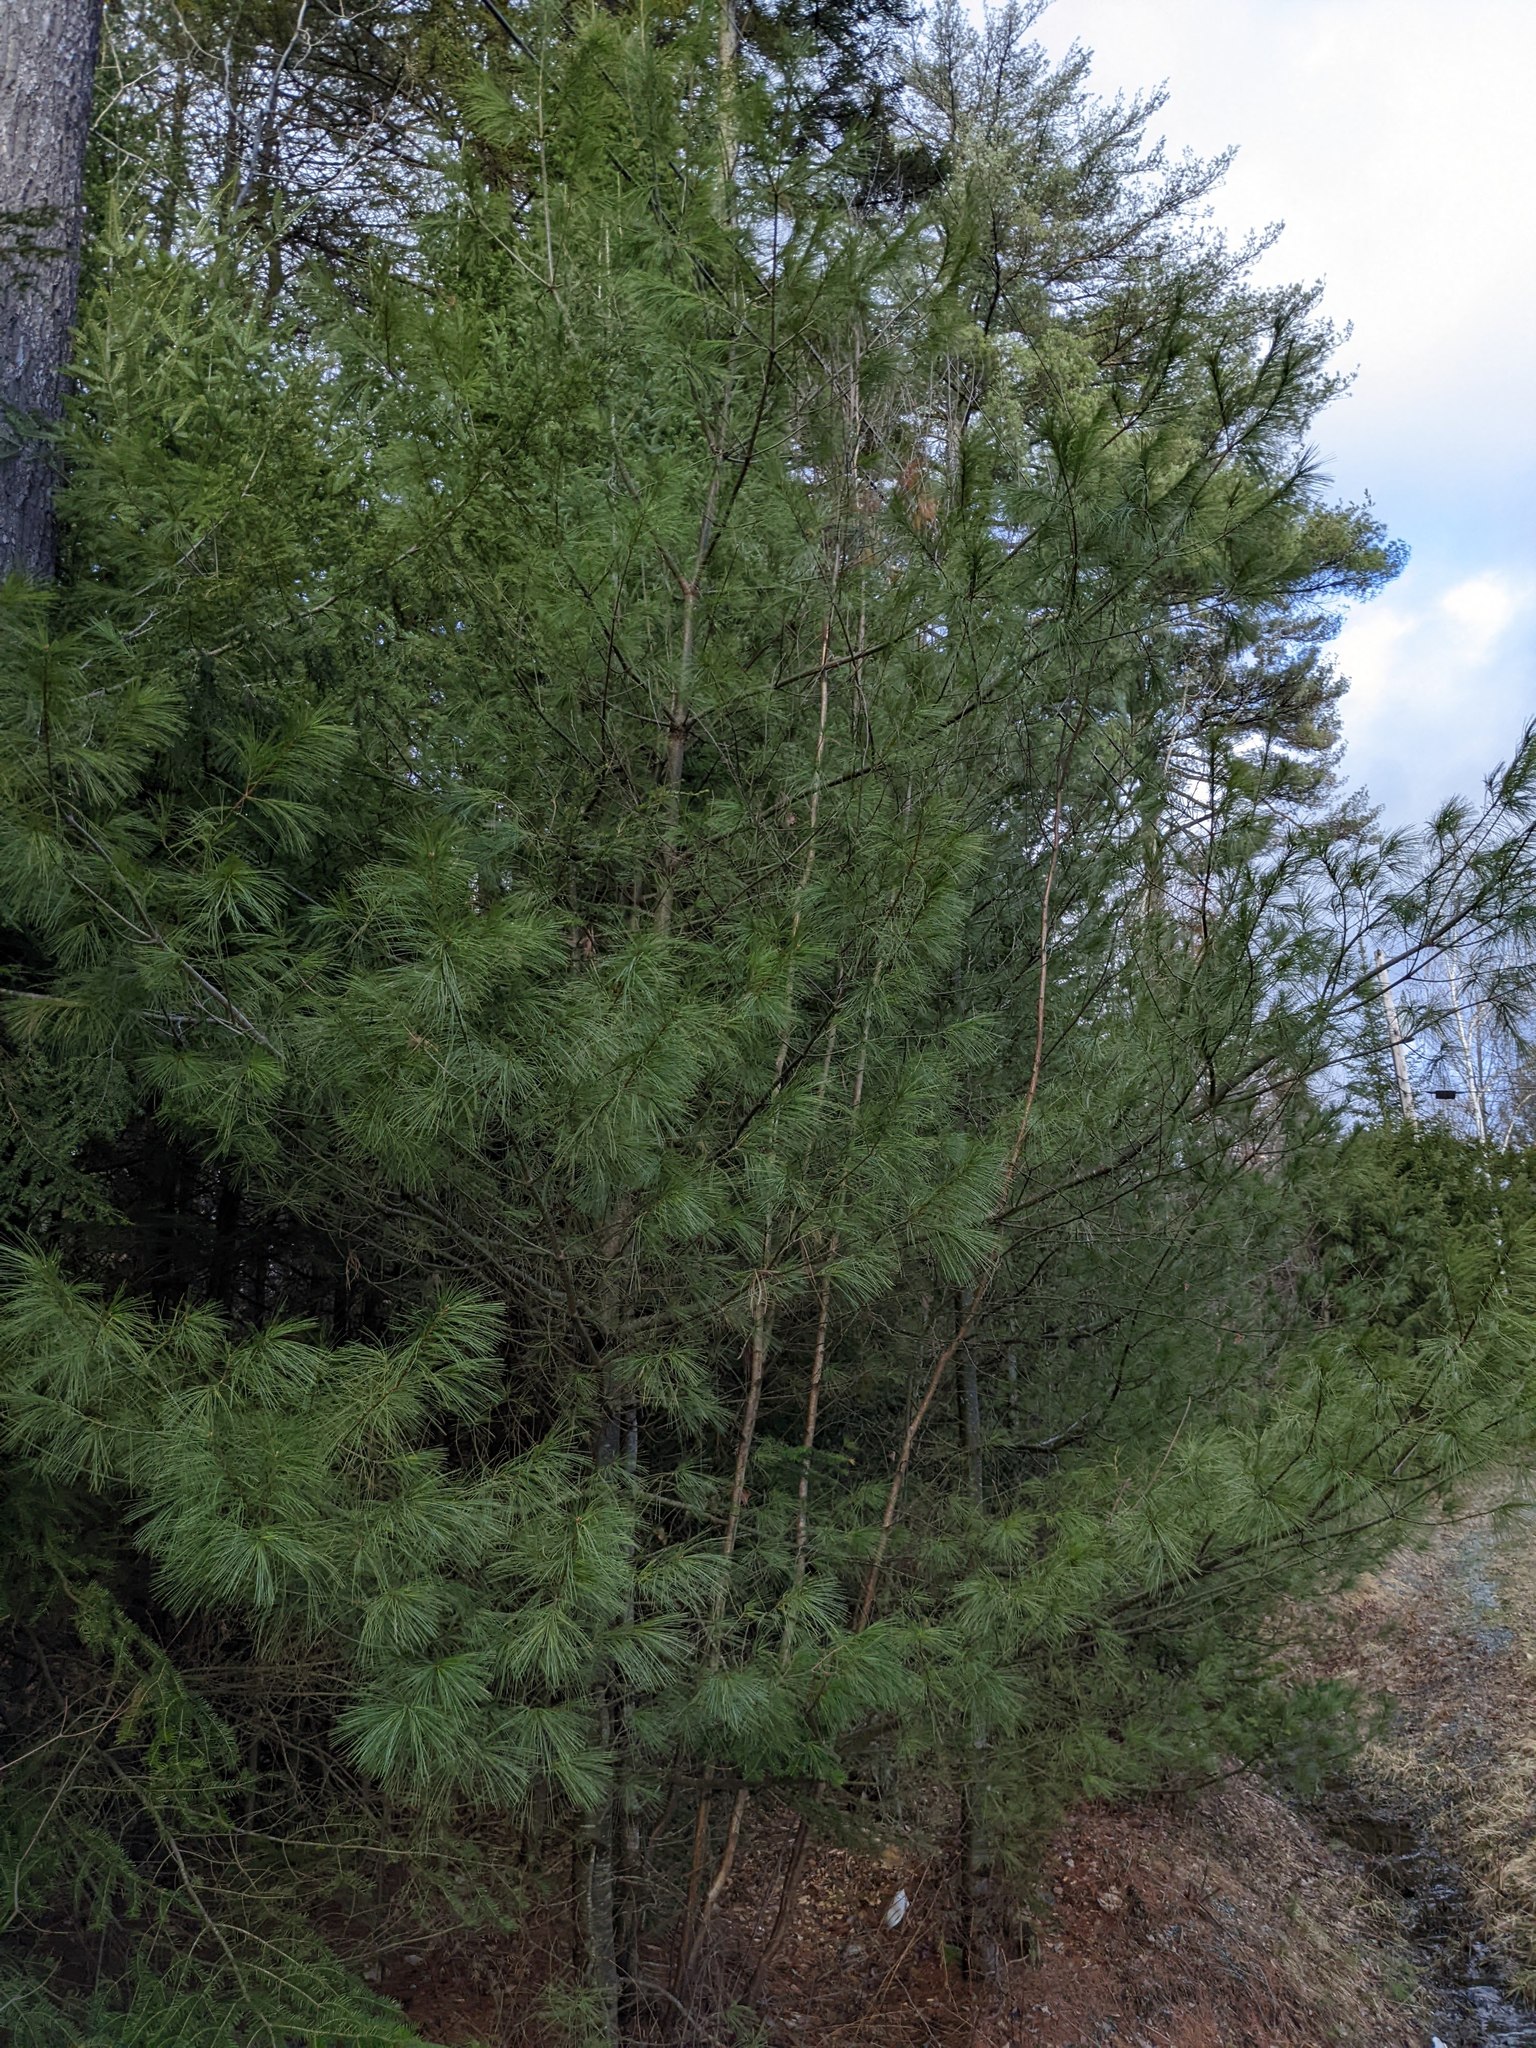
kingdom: Plantae
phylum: Tracheophyta
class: Pinopsida
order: Pinales
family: Pinaceae
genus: Pinus
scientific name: Pinus strobus
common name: Weymouth pine
